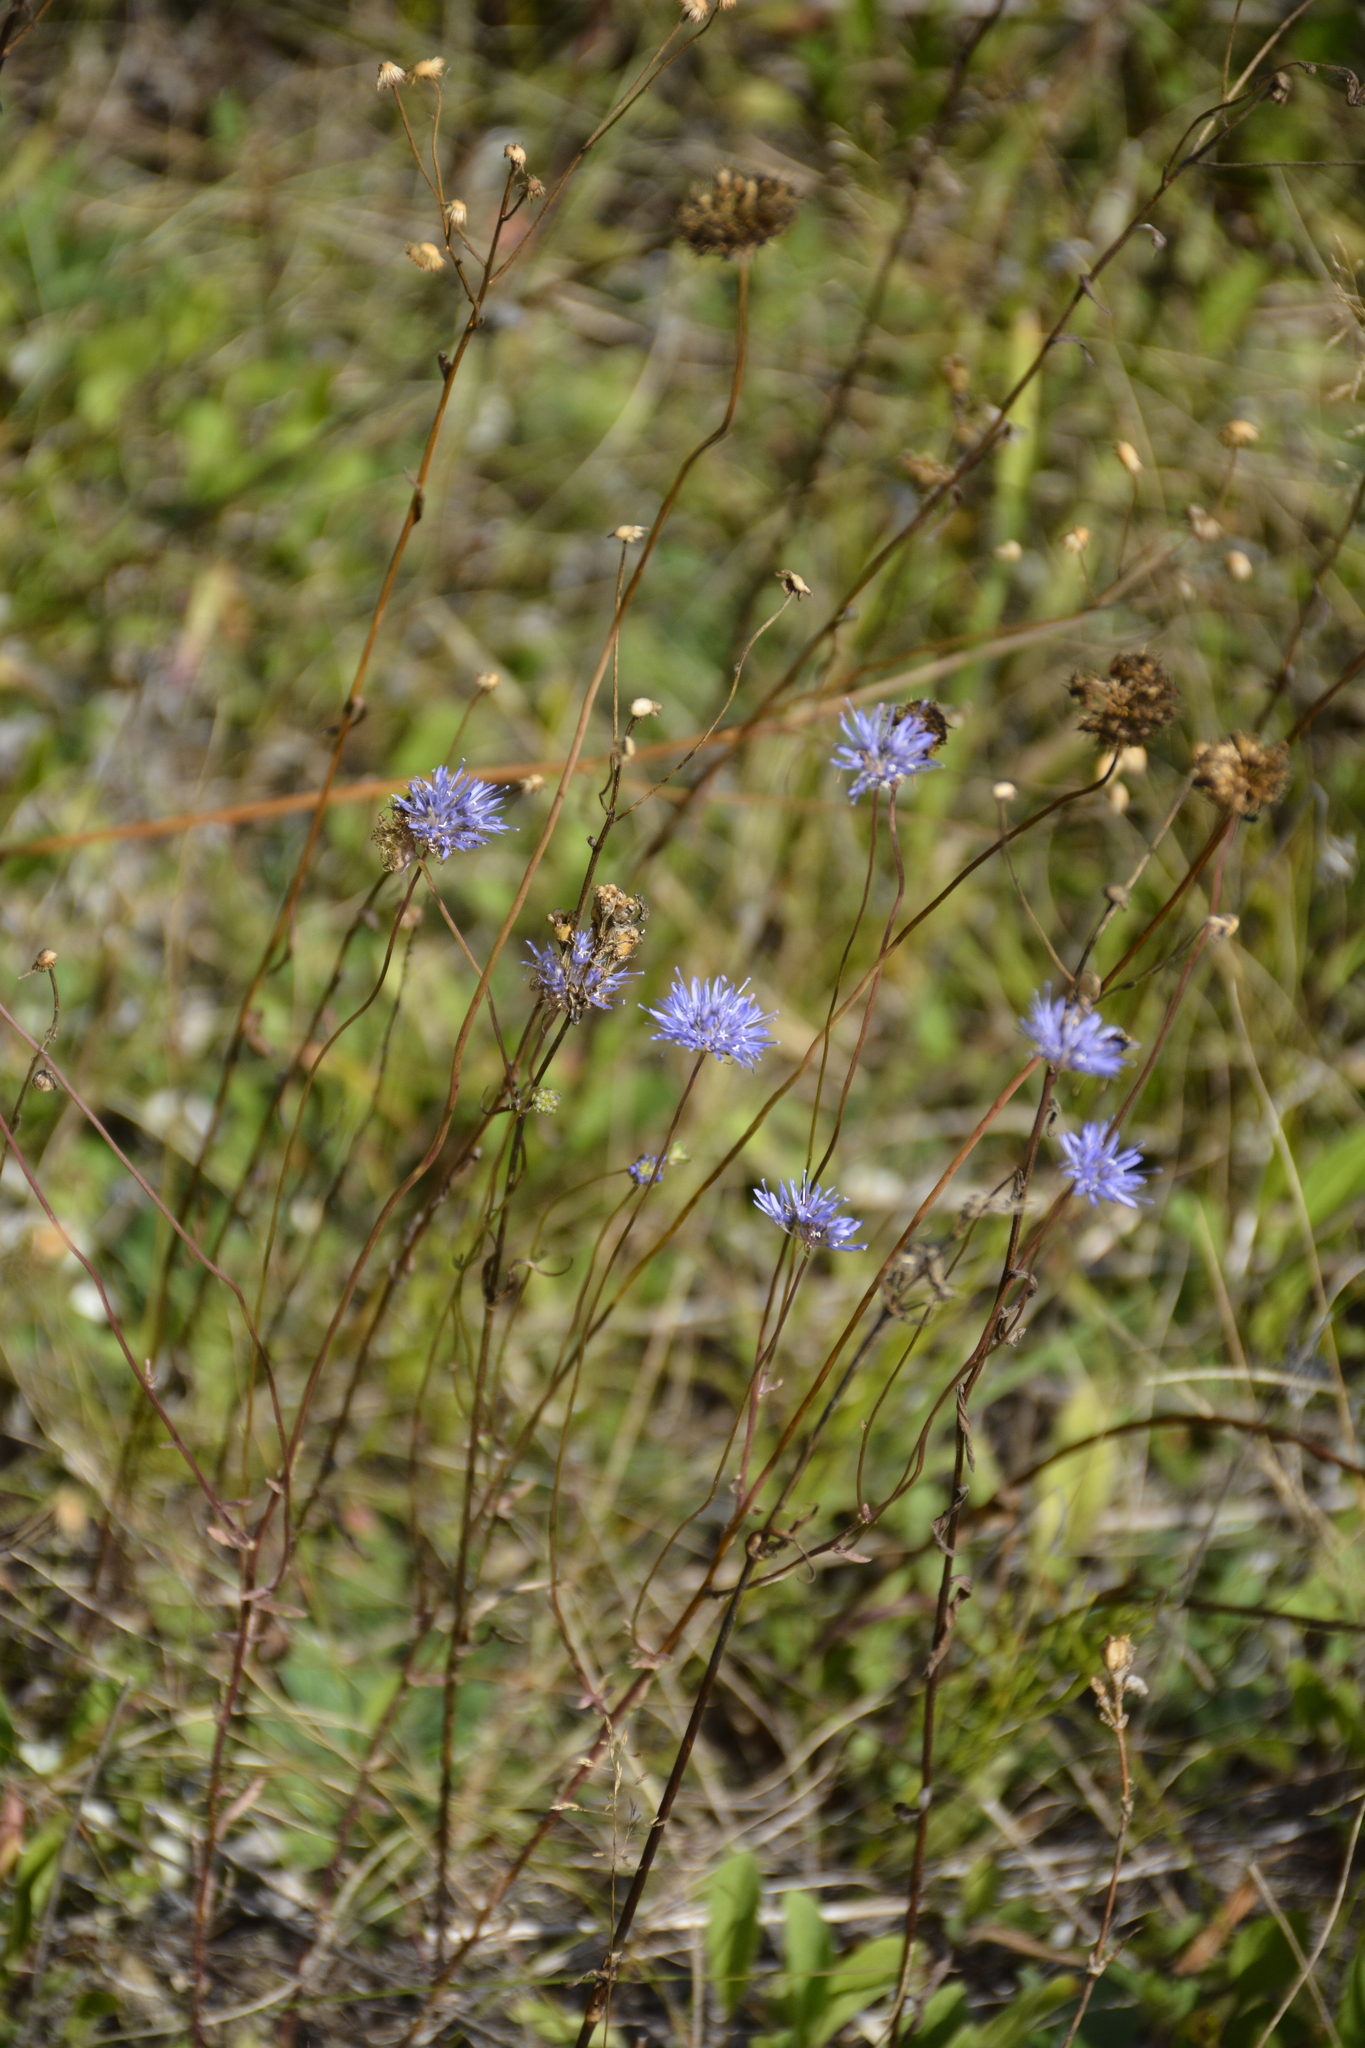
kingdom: Plantae
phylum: Tracheophyta
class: Magnoliopsida
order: Asterales
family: Campanulaceae
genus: Jasione
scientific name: Jasione montana
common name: Sheep's-bit
